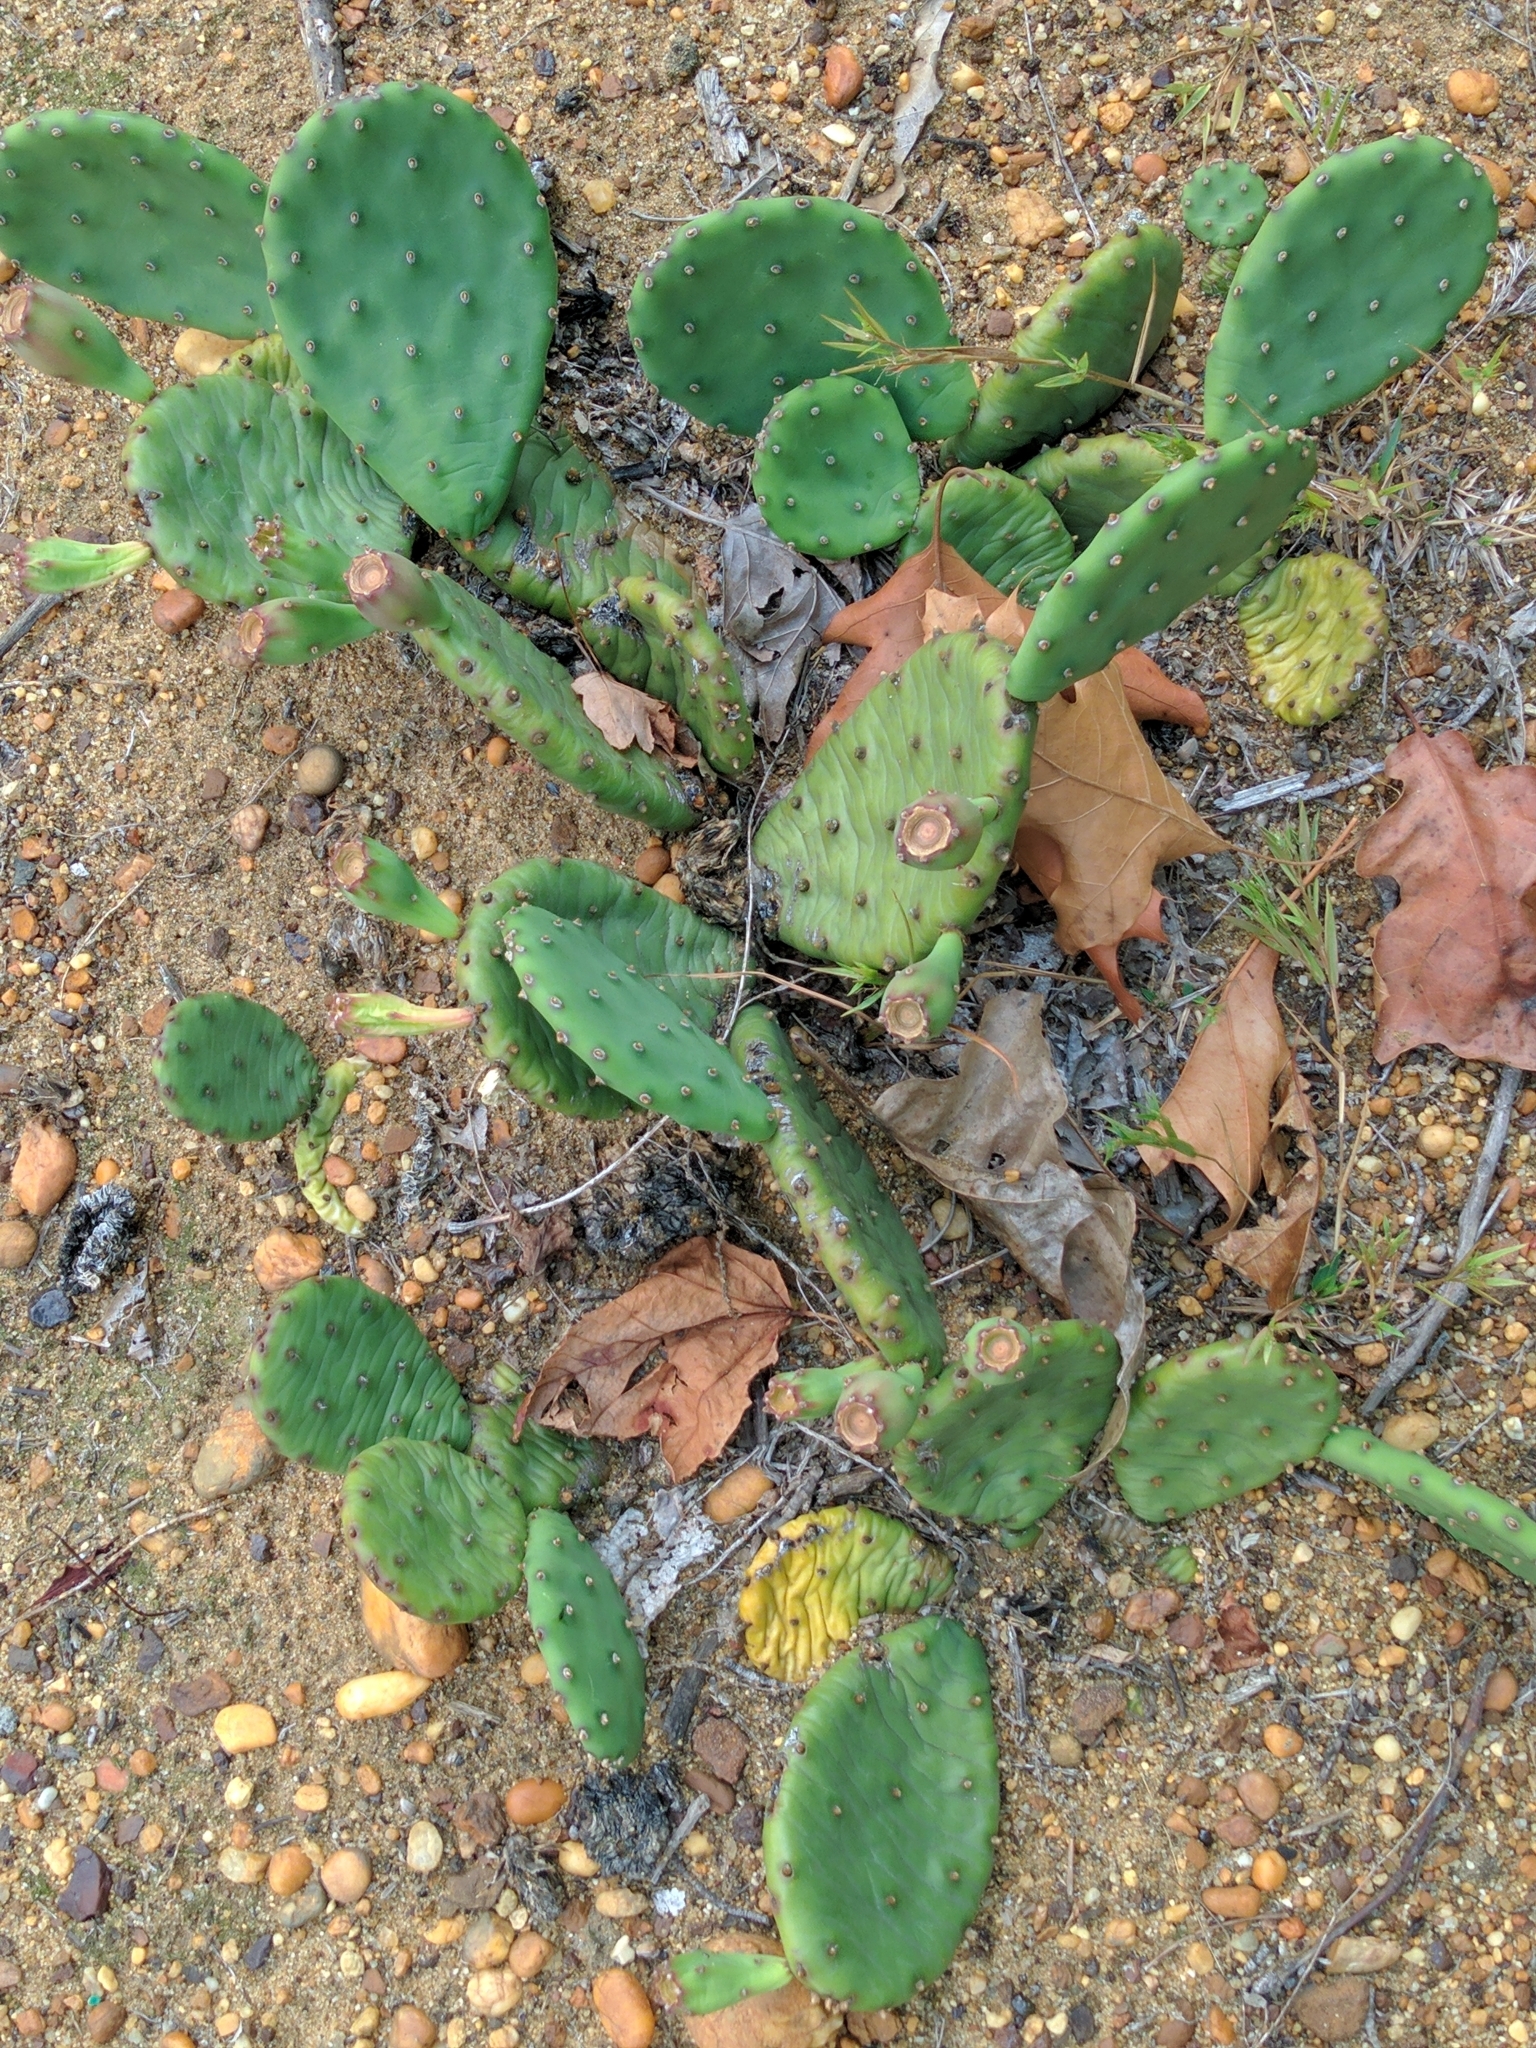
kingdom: Plantae
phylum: Tracheophyta
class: Magnoliopsida
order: Caryophyllales
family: Cactaceae
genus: Opuntia
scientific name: Opuntia humifusa
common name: Eastern prickly-pear
